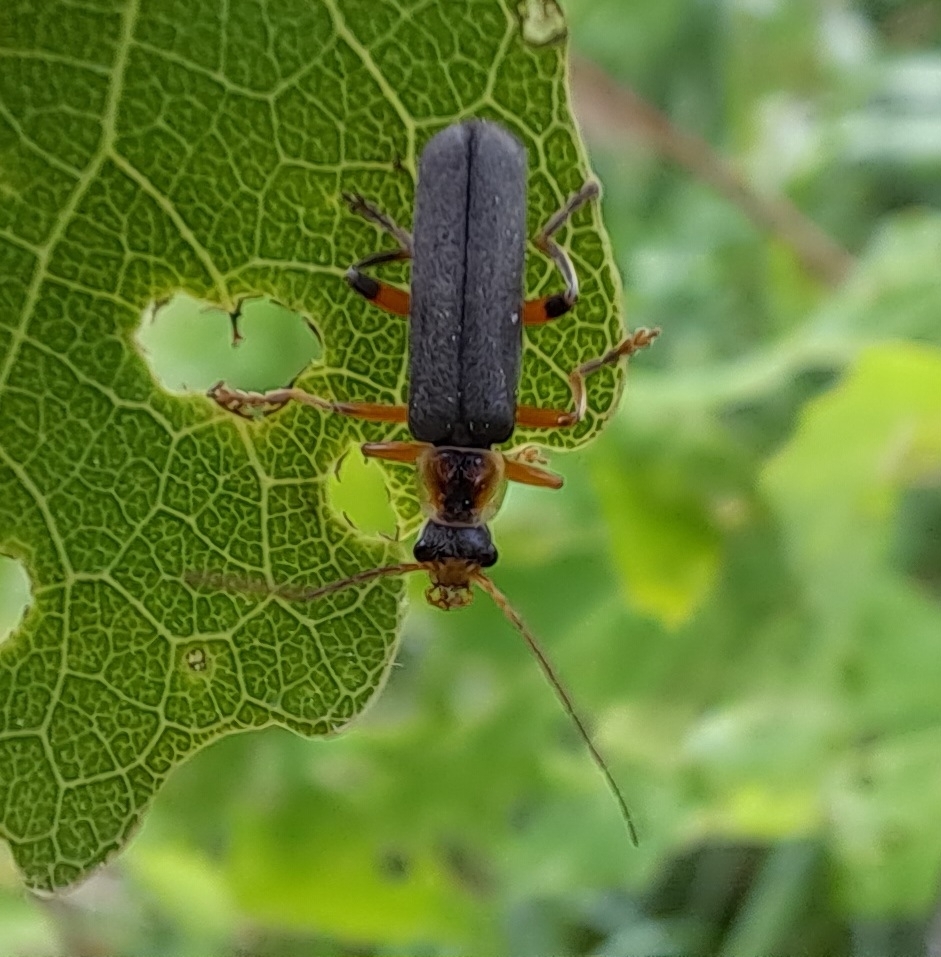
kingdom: Animalia
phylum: Arthropoda
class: Insecta
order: Coleoptera
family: Cantharidae
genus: Cantharis
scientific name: Cantharis nigricans
